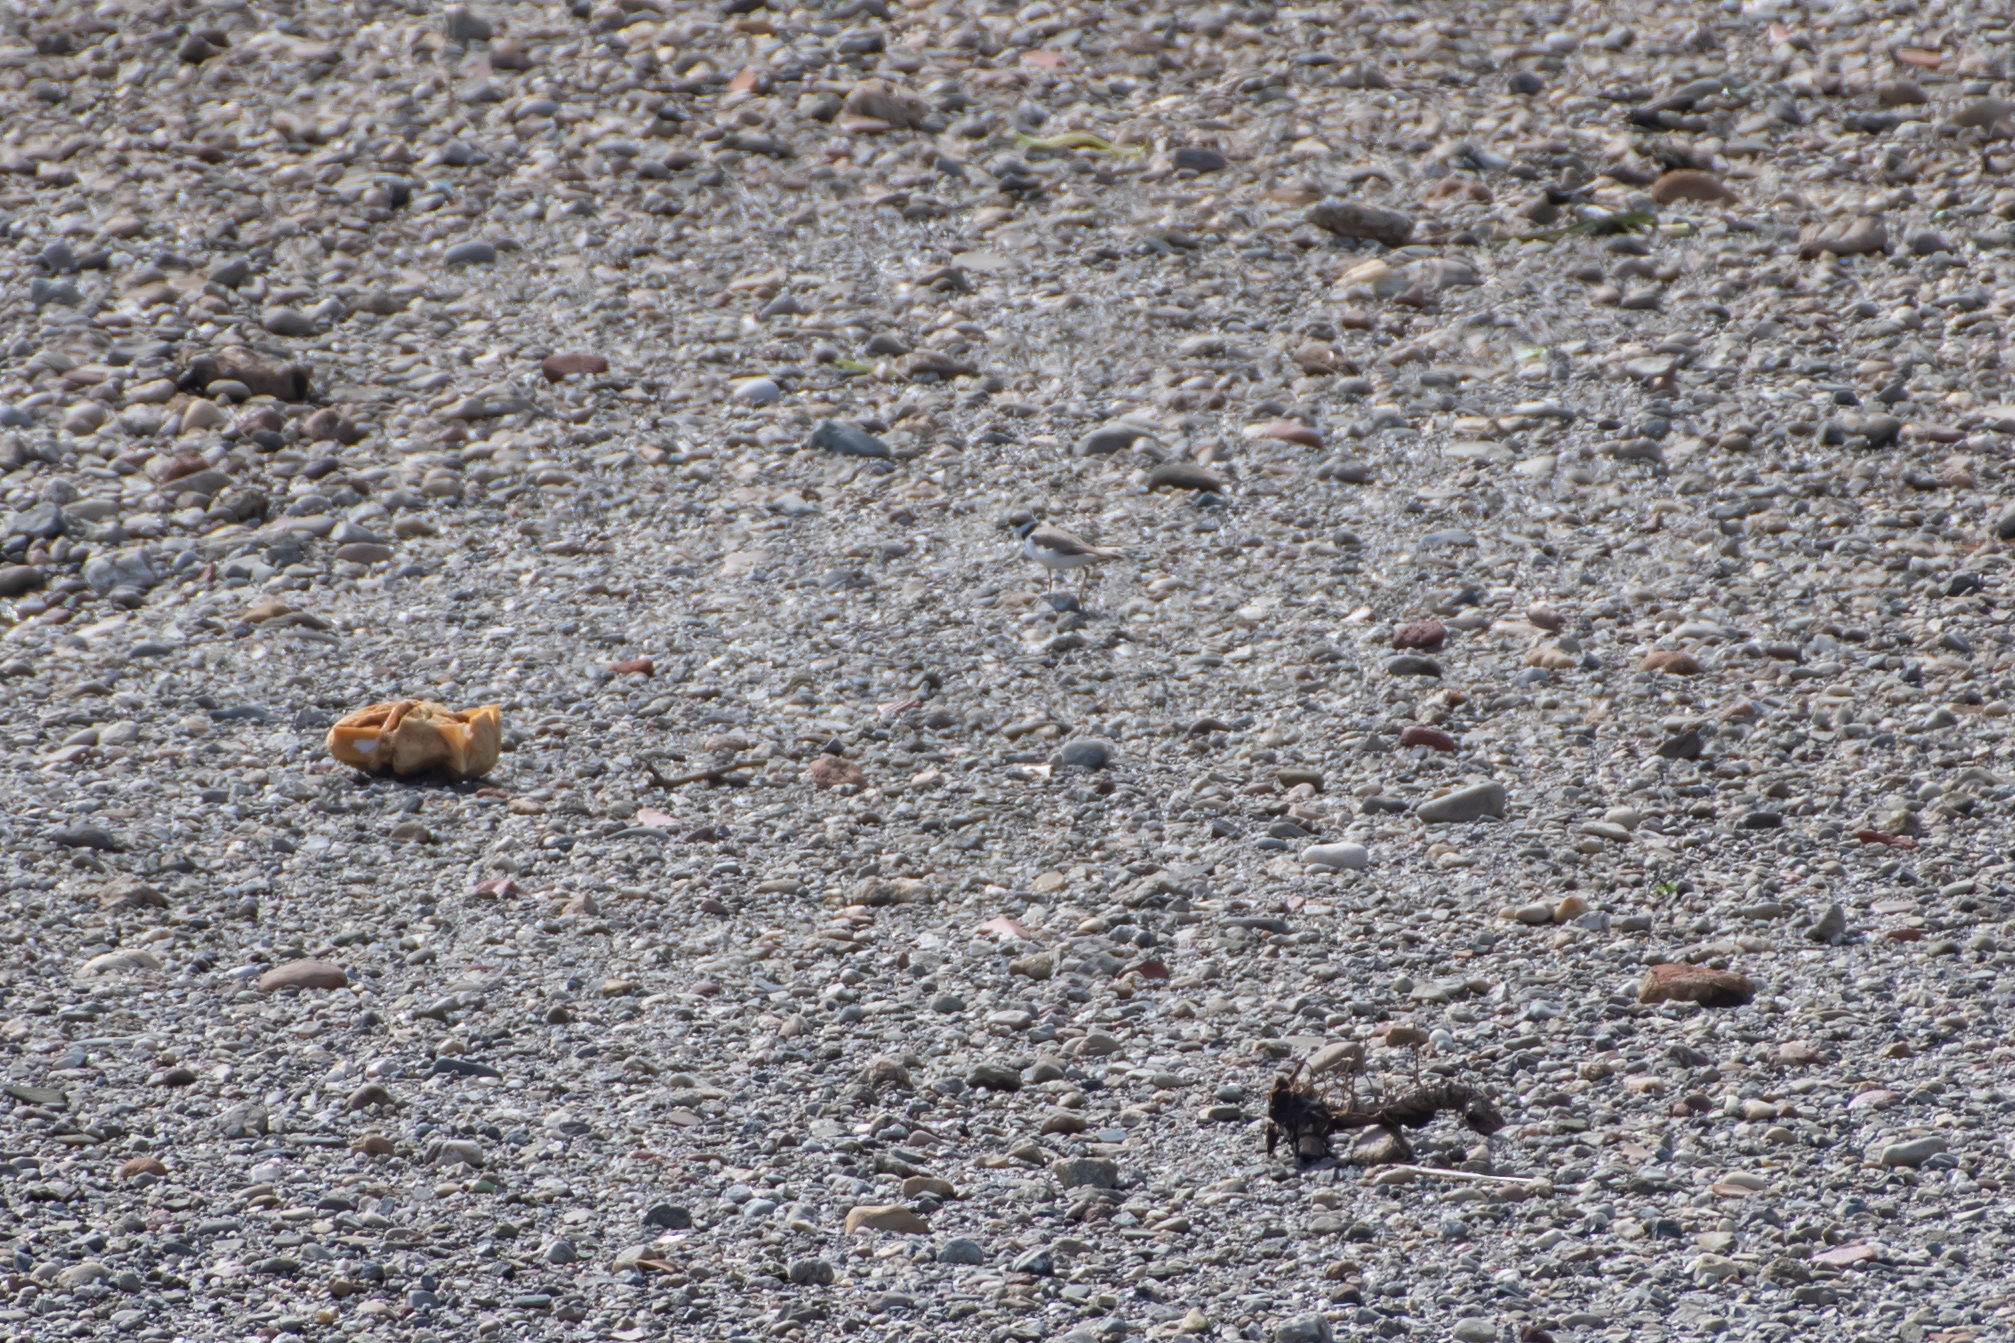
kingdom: Animalia
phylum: Chordata
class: Aves
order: Charadriiformes
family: Charadriidae
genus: Charadrius
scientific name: Charadrius dubius
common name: Little ringed plover
